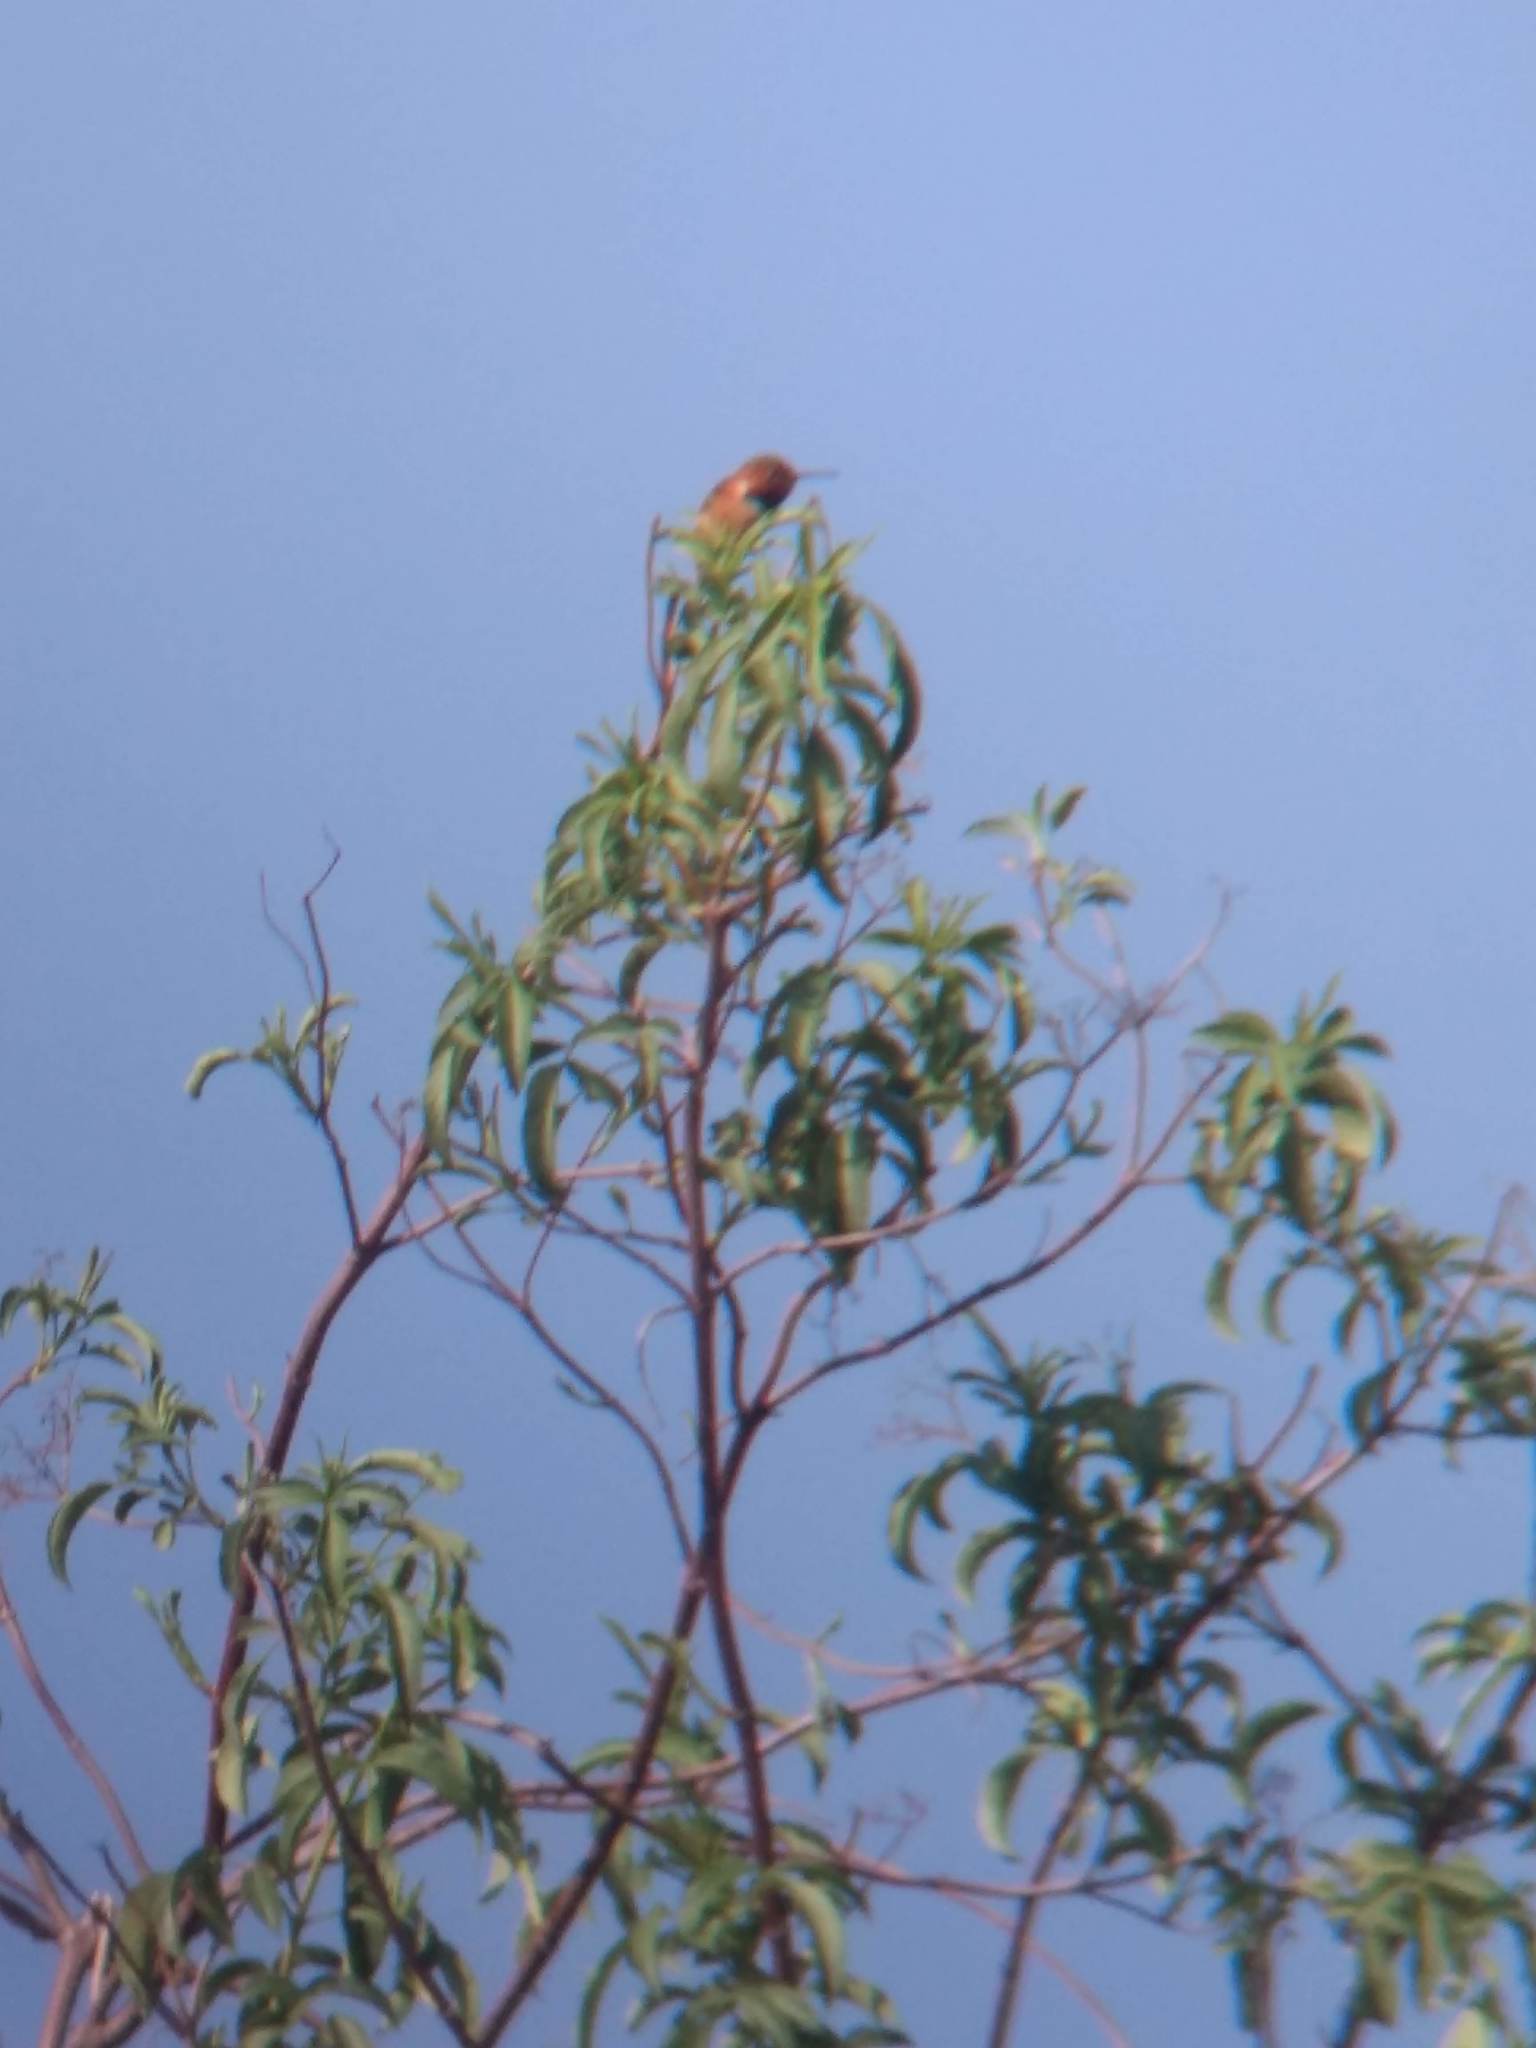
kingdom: Animalia
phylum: Chordata
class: Aves
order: Apodiformes
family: Trochilidae
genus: Selasphorus
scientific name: Selasphorus
